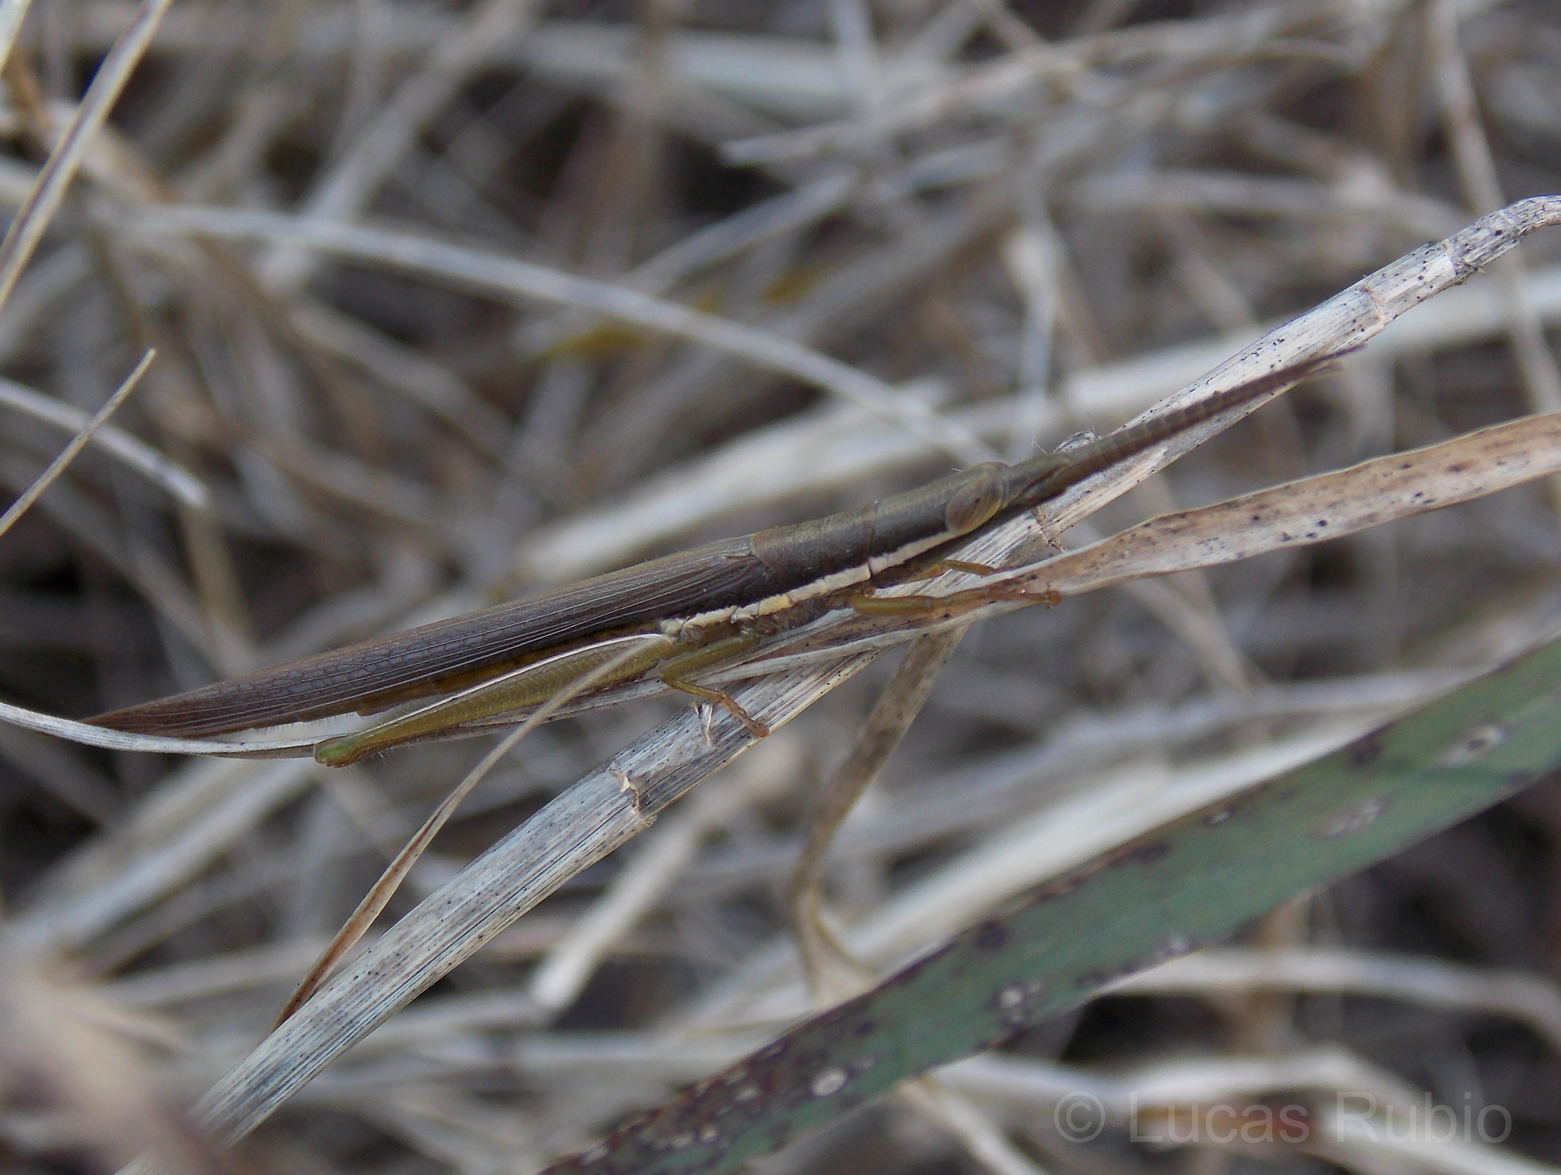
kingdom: Animalia
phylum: Arthropoda
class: Insecta
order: Orthoptera
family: Acrididae
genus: Cylindrotettix
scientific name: Cylindrotettix dorsalis
